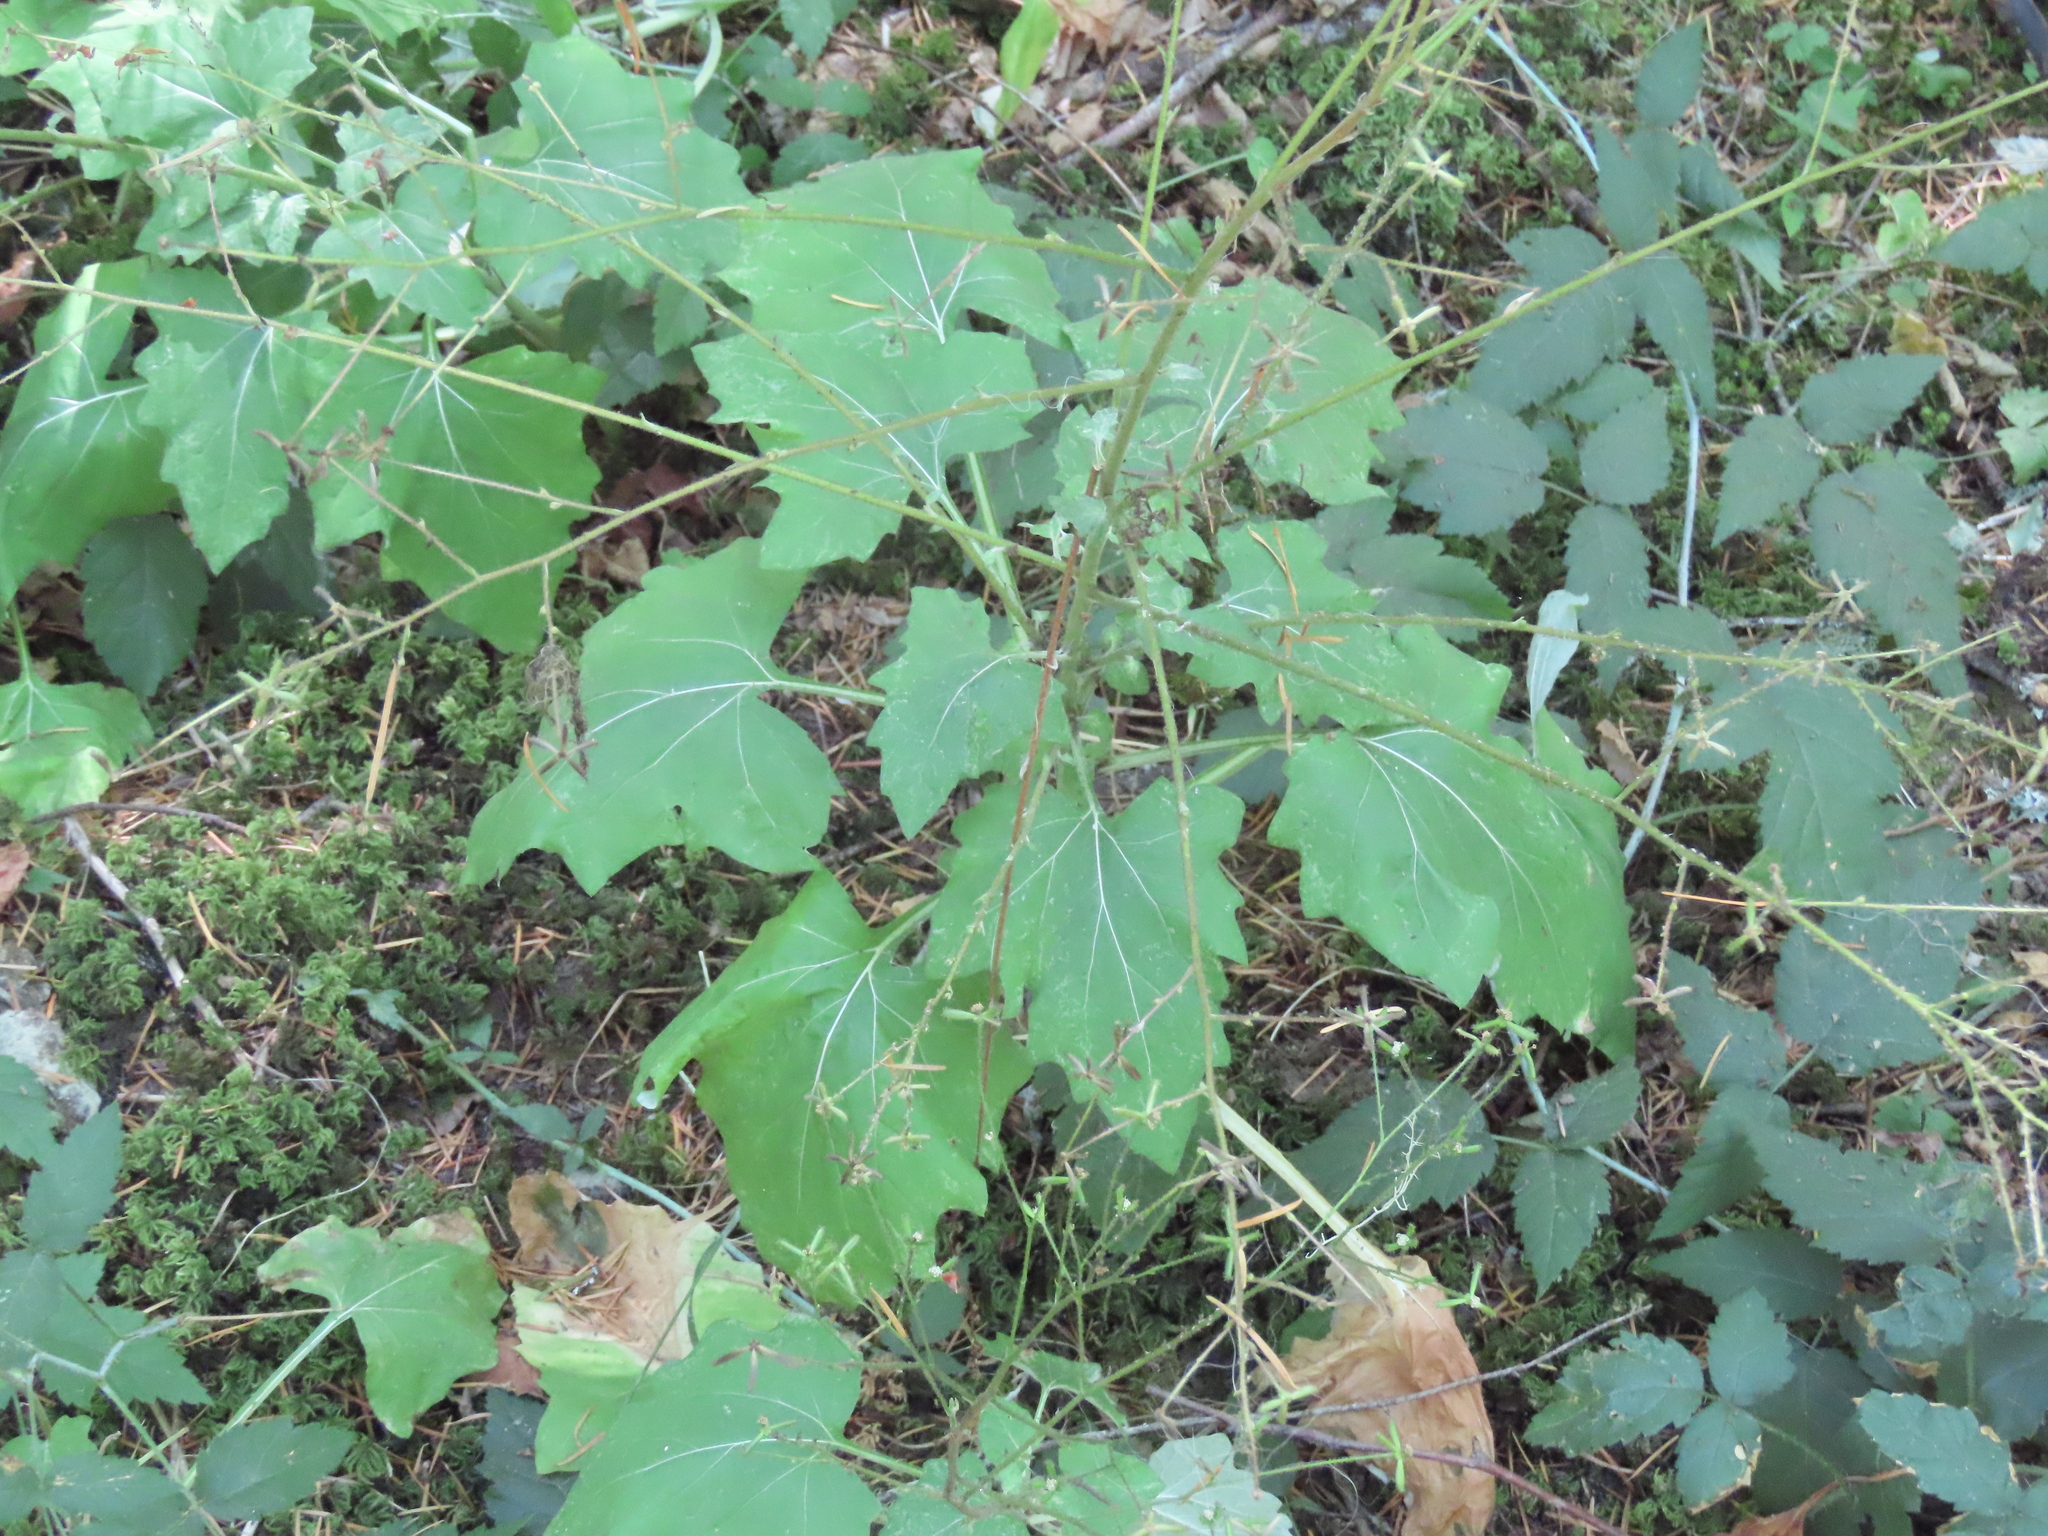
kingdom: Plantae
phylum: Tracheophyta
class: Magnoliopsida
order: Asterales
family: Asteraceae
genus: Adenocaulon
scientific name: Adenocaulon bicolor
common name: Trailplant
